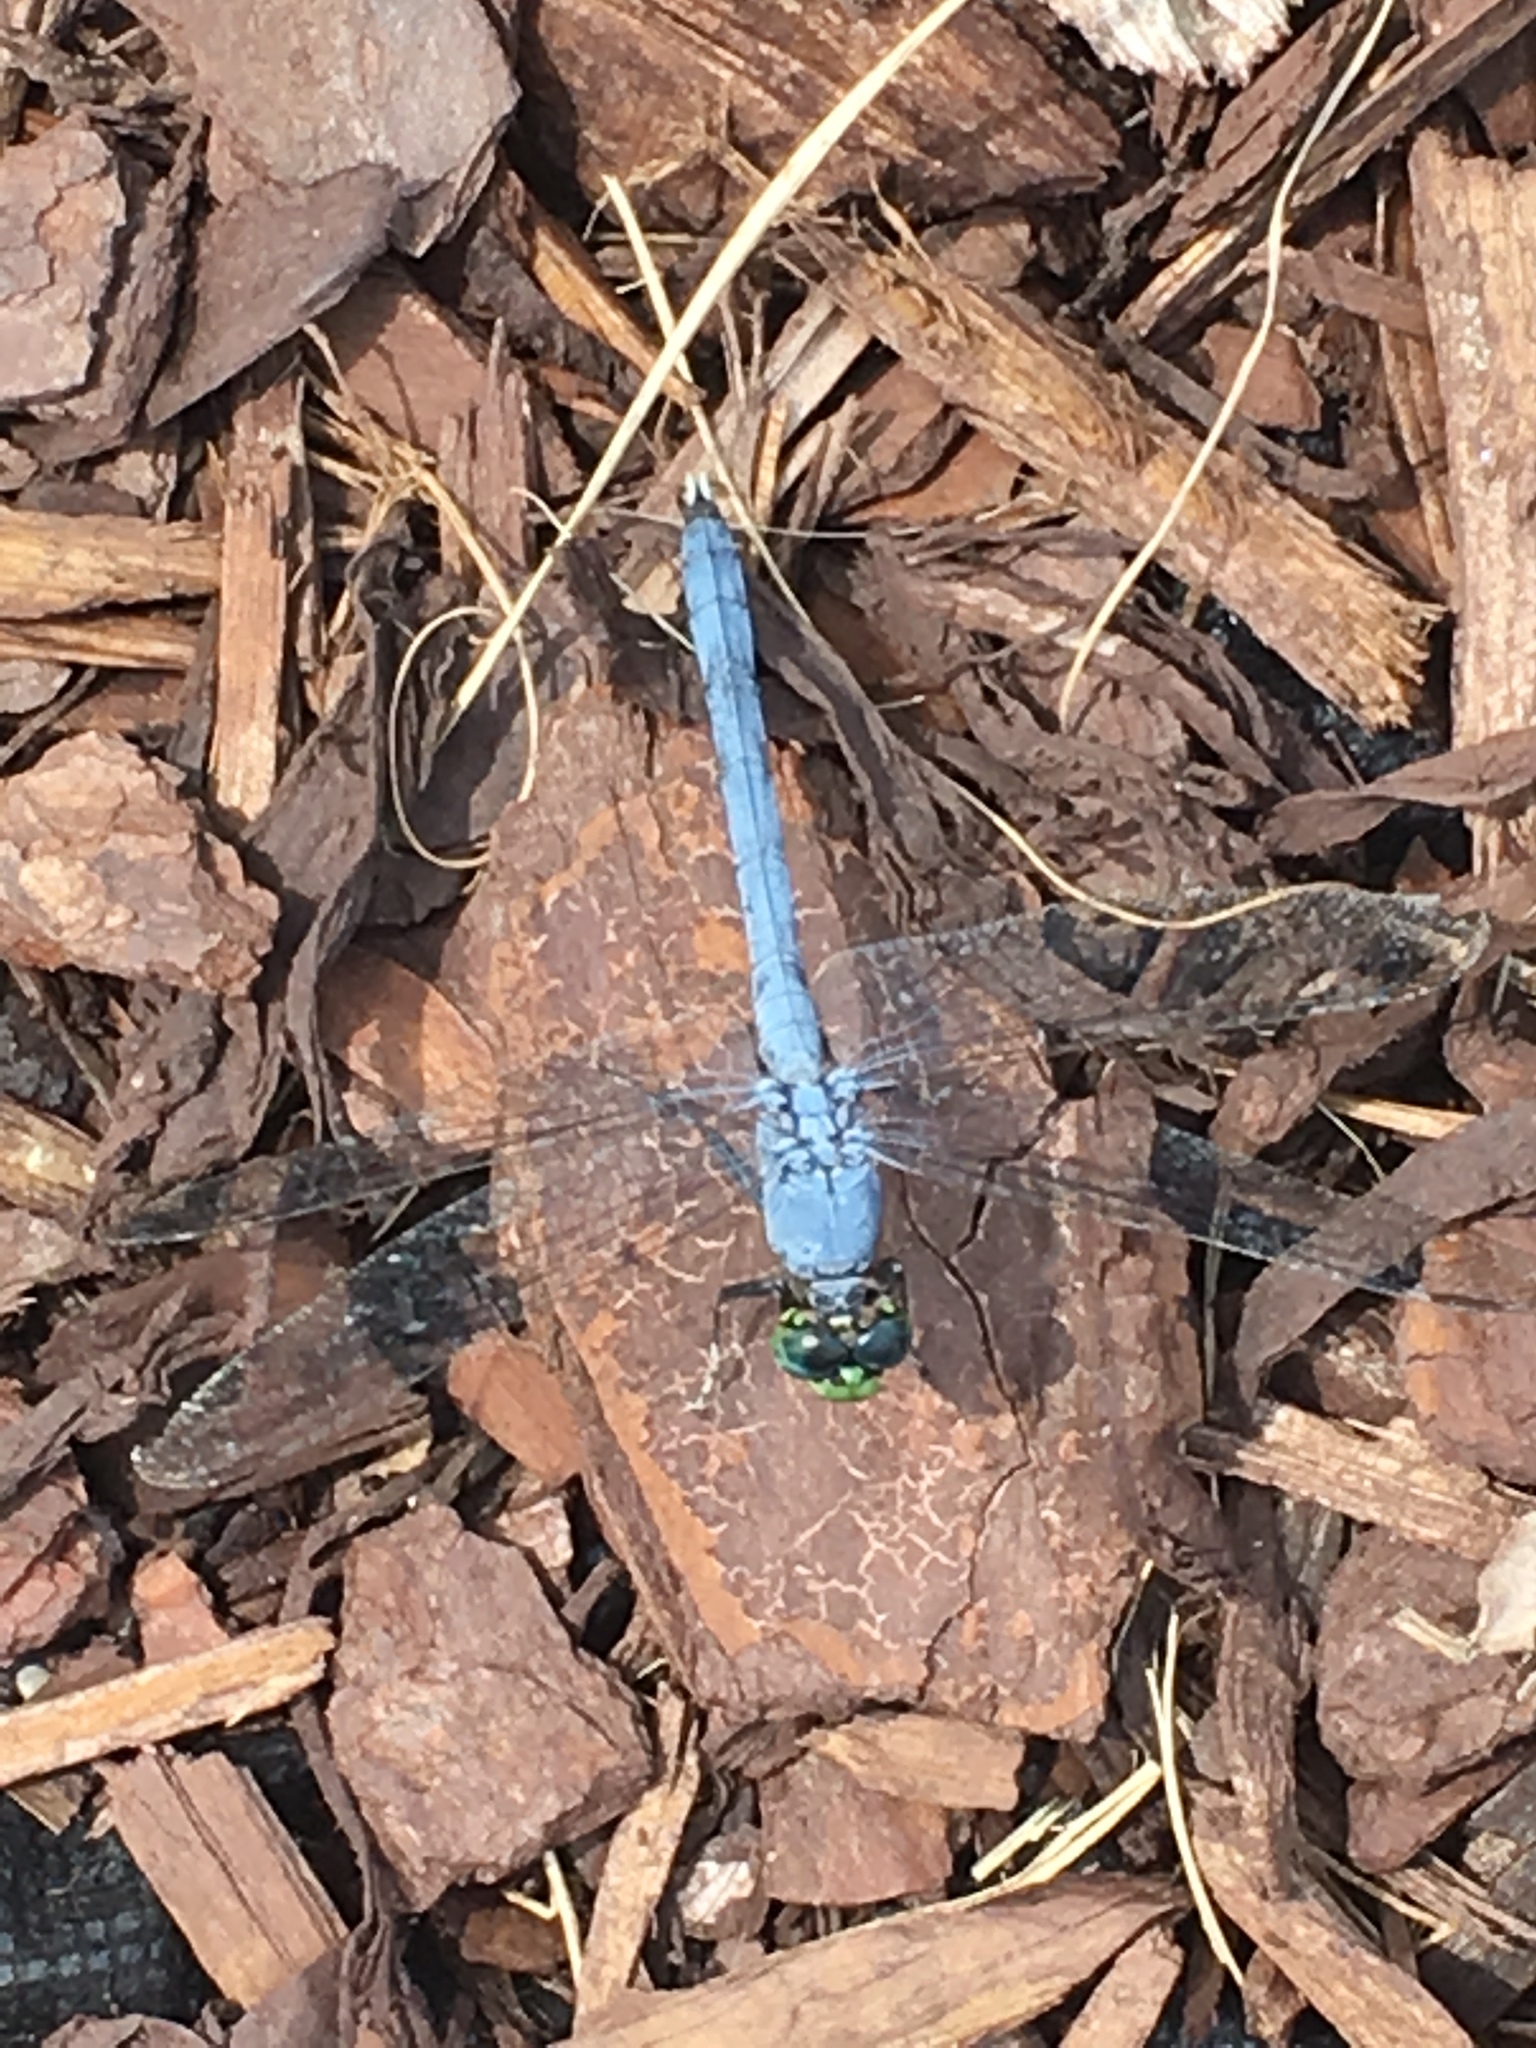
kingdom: Animalia
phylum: Arthropoda
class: Insecta
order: Odonata
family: Libellulidae
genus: Erythemis
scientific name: Erythemis simplicicollis
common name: Eastern pondhawk
